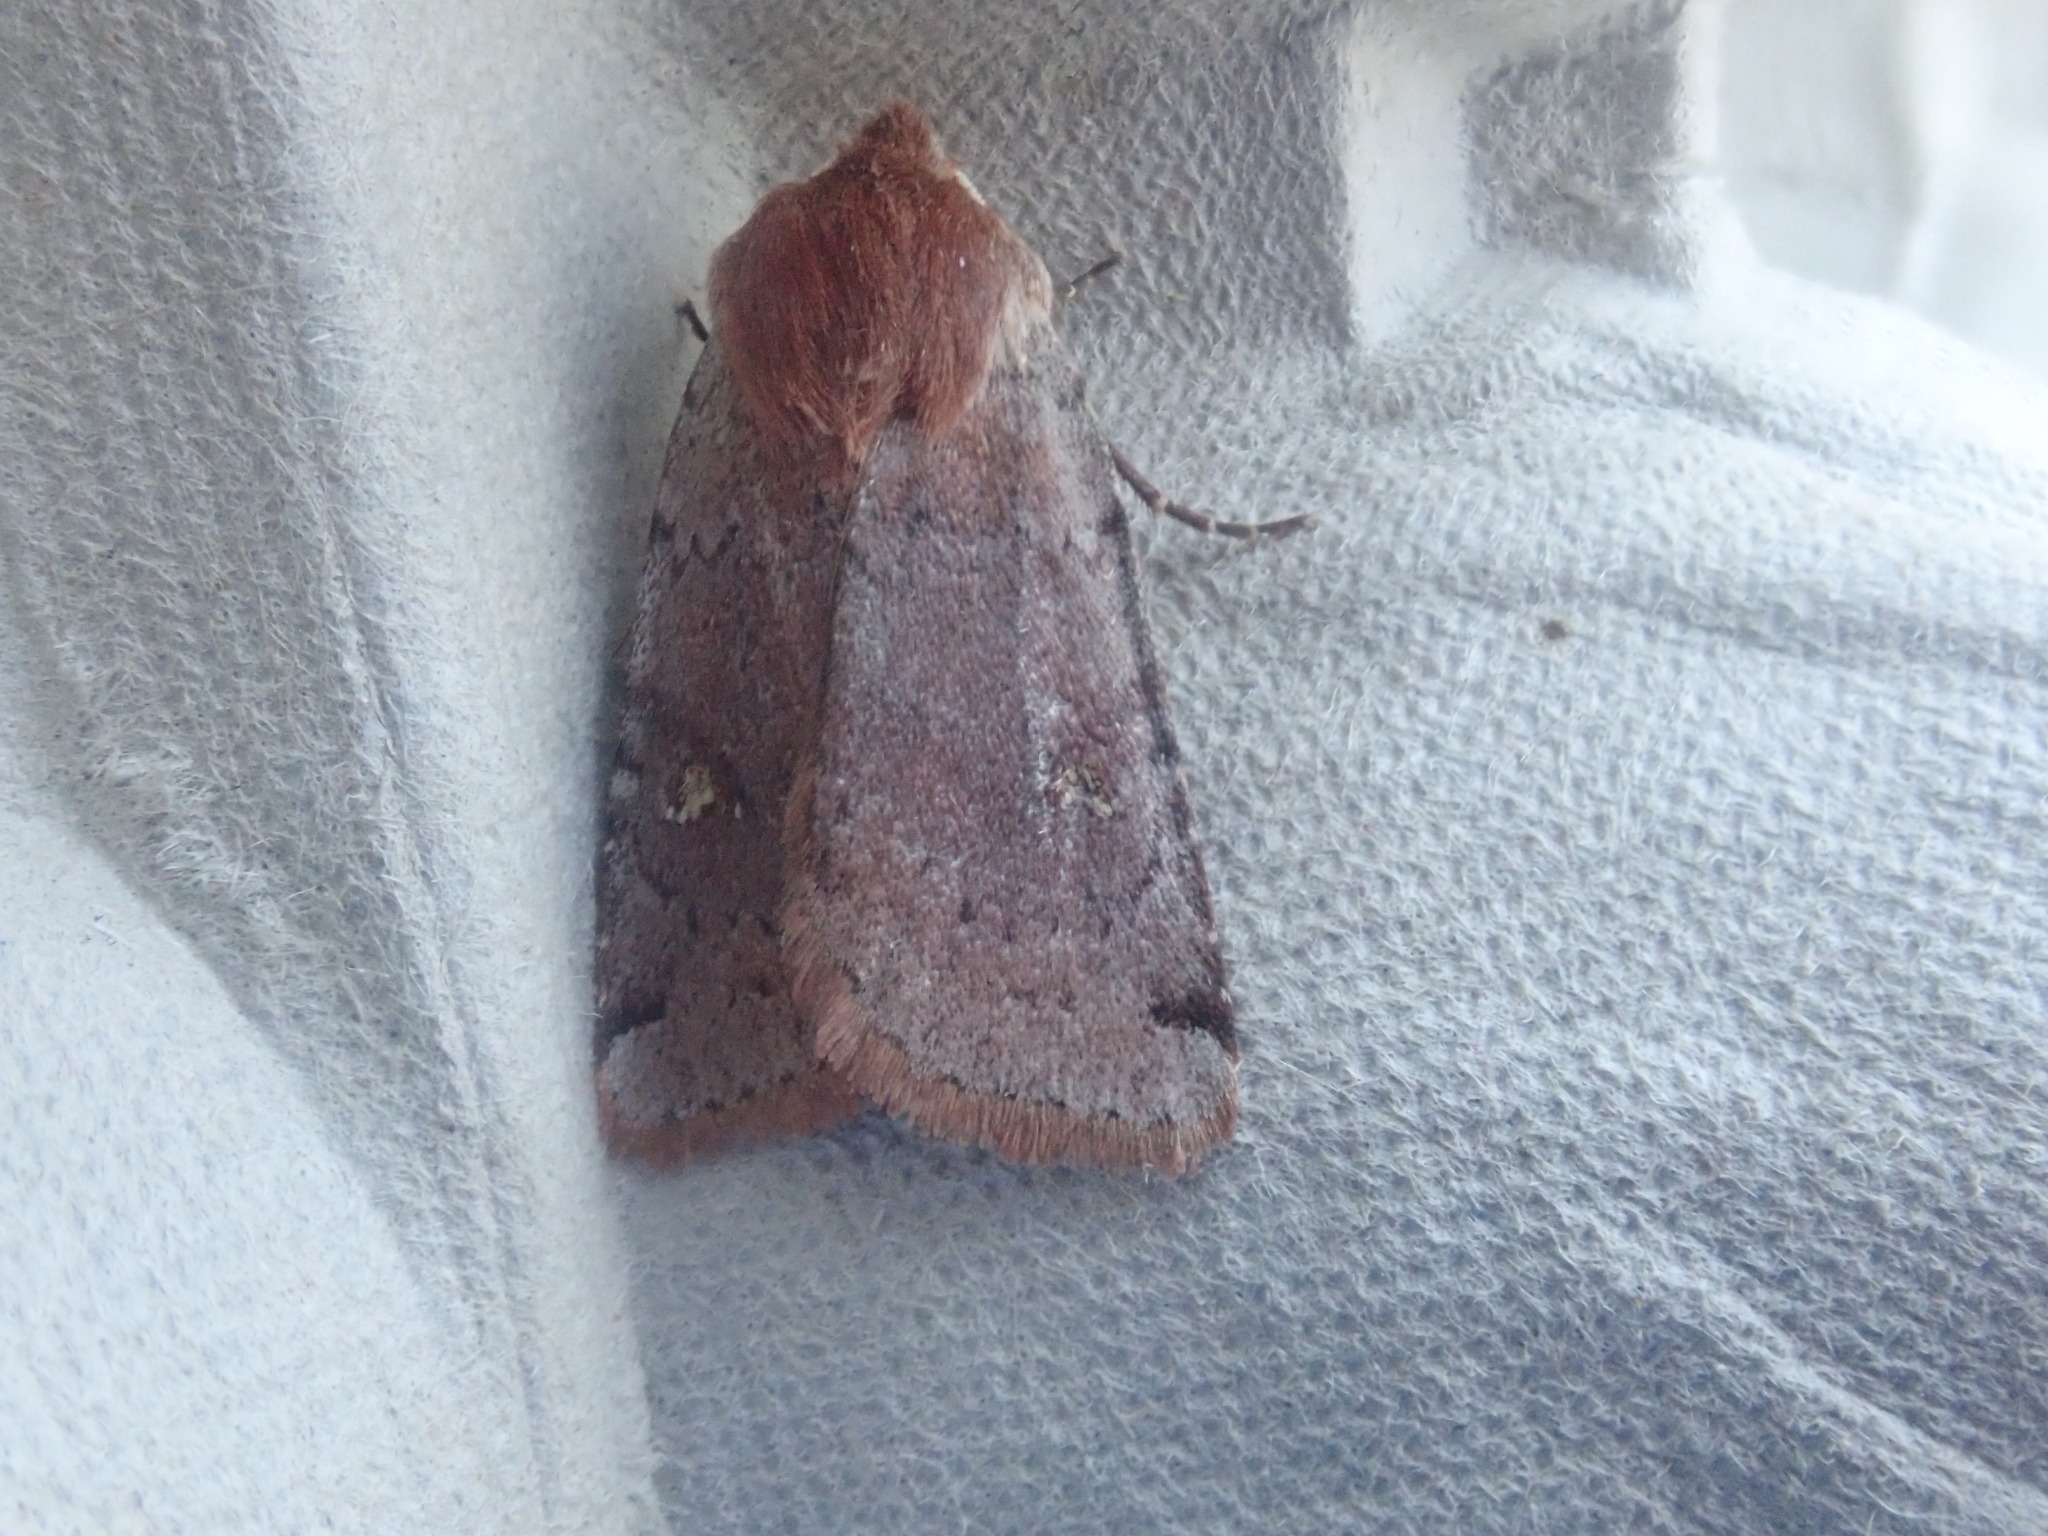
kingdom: Animalia
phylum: Arthropoda
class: Insecta
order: Lepidoptera
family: Noctuidae
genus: Cerastis
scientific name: Cerastis fishii
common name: Fish's dart
